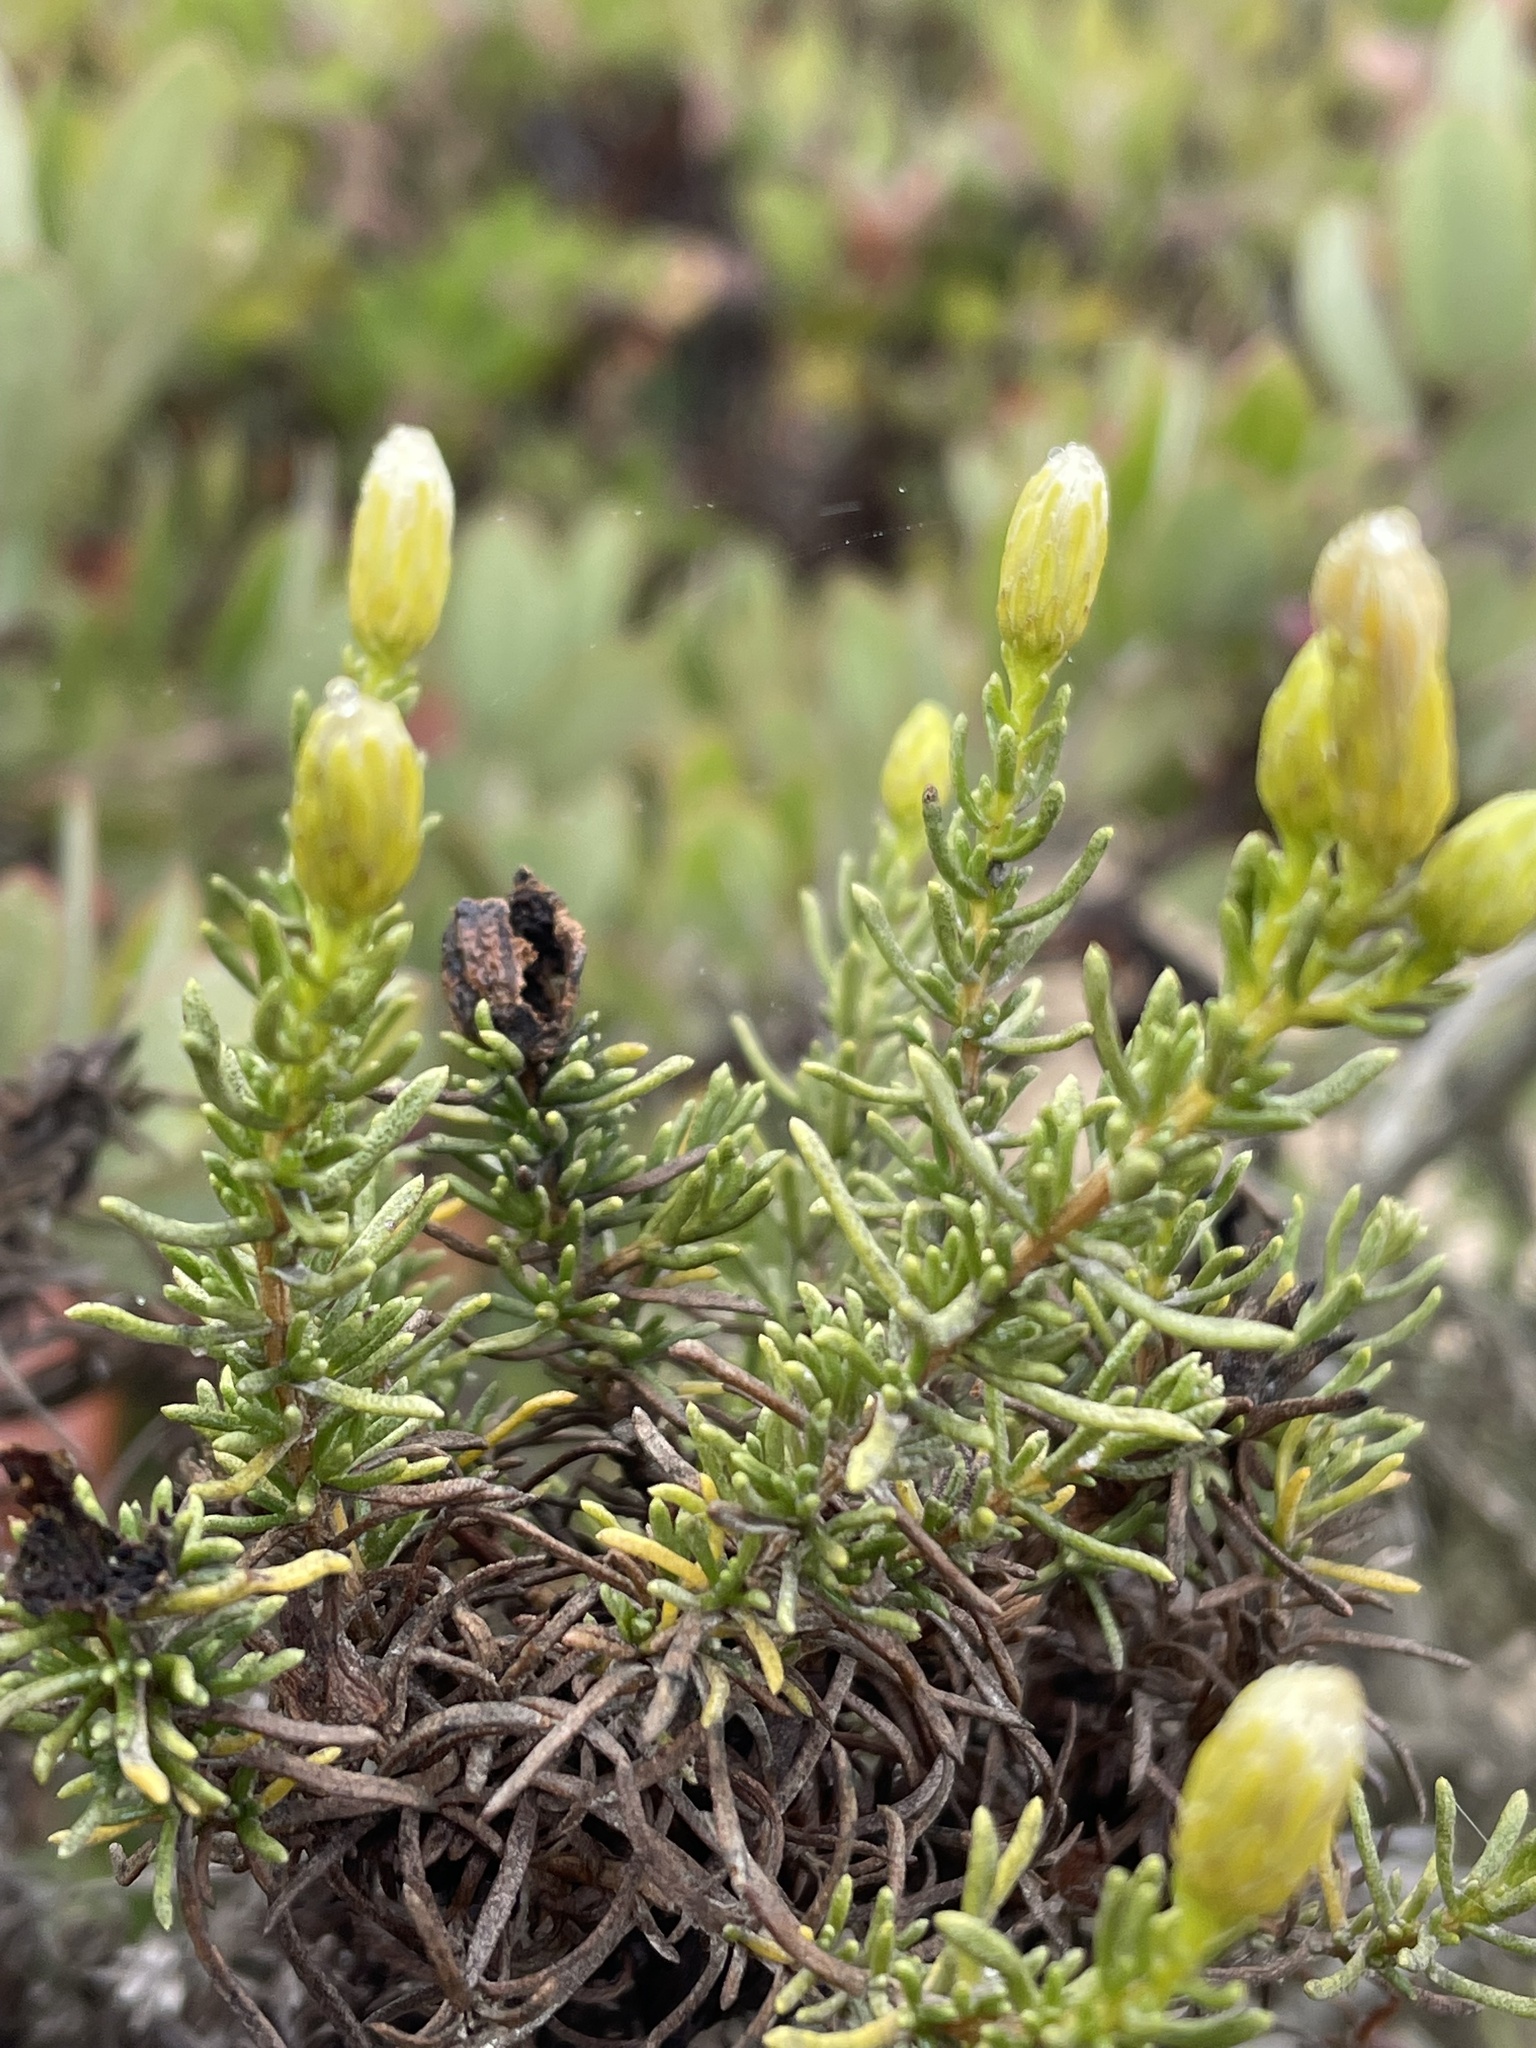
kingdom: Plantae
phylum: Tracheophyta
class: Magnoliopsida
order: Asterales
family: Asteraceae
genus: Ericameria
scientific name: Ericameria fasciculata
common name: Eastwood's goldenbush
